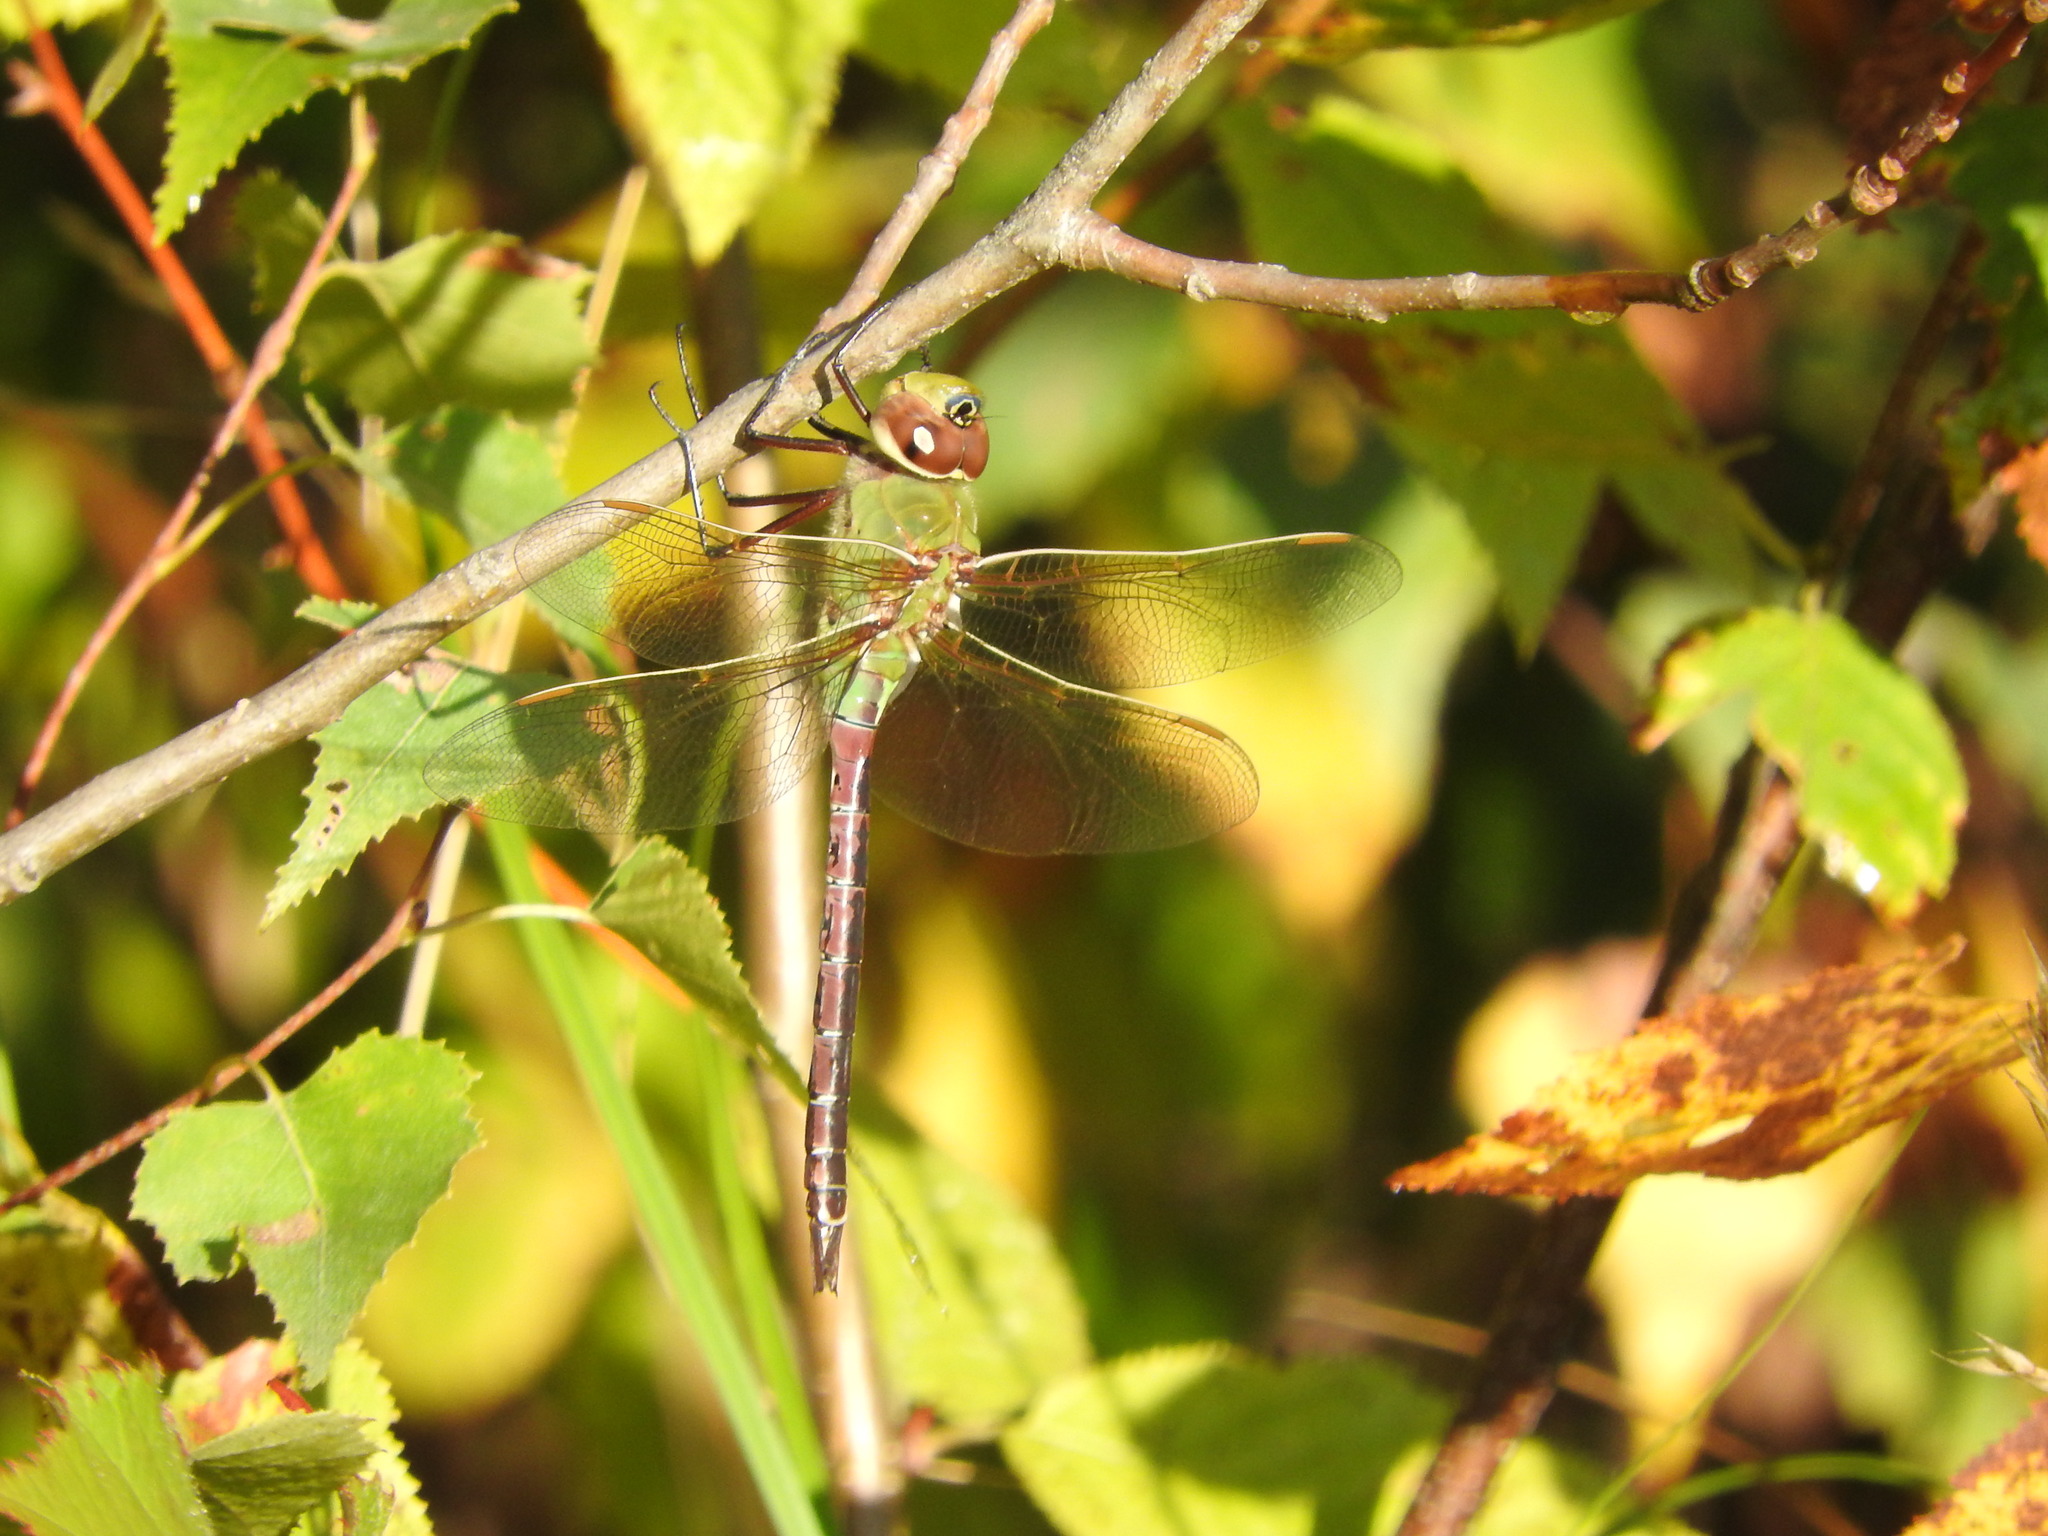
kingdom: Animalia
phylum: Arthropoda
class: Insecta
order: Odonata
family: Aeshnidae
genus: Anax
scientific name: Anax junius
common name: Common green darner
